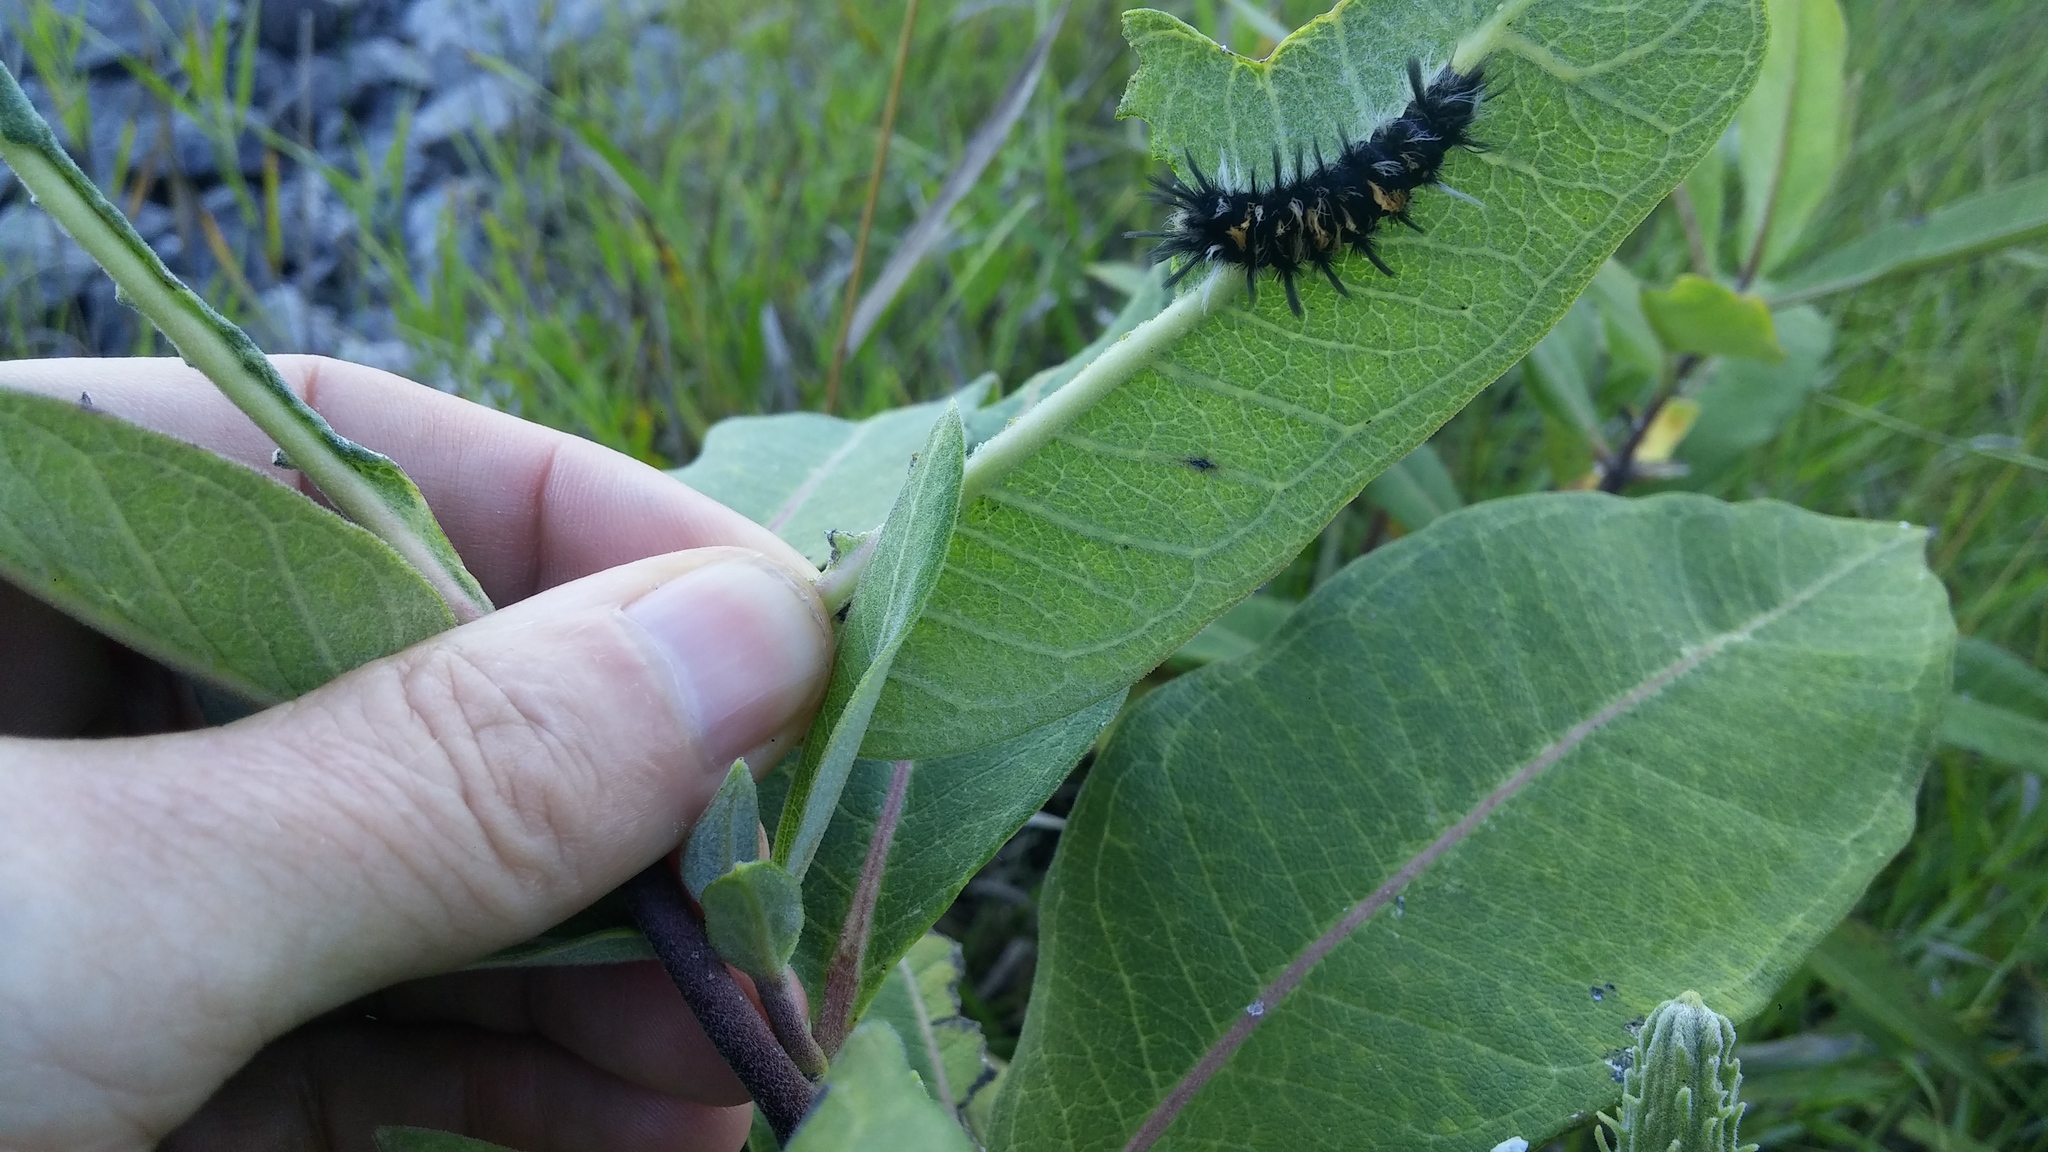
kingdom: Animalia
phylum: Arthropoda
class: Insecta
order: Lepidoptera
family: Erebidae
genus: Euchaetes
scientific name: Euchaetes egle
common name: Milkweed tussock moth
